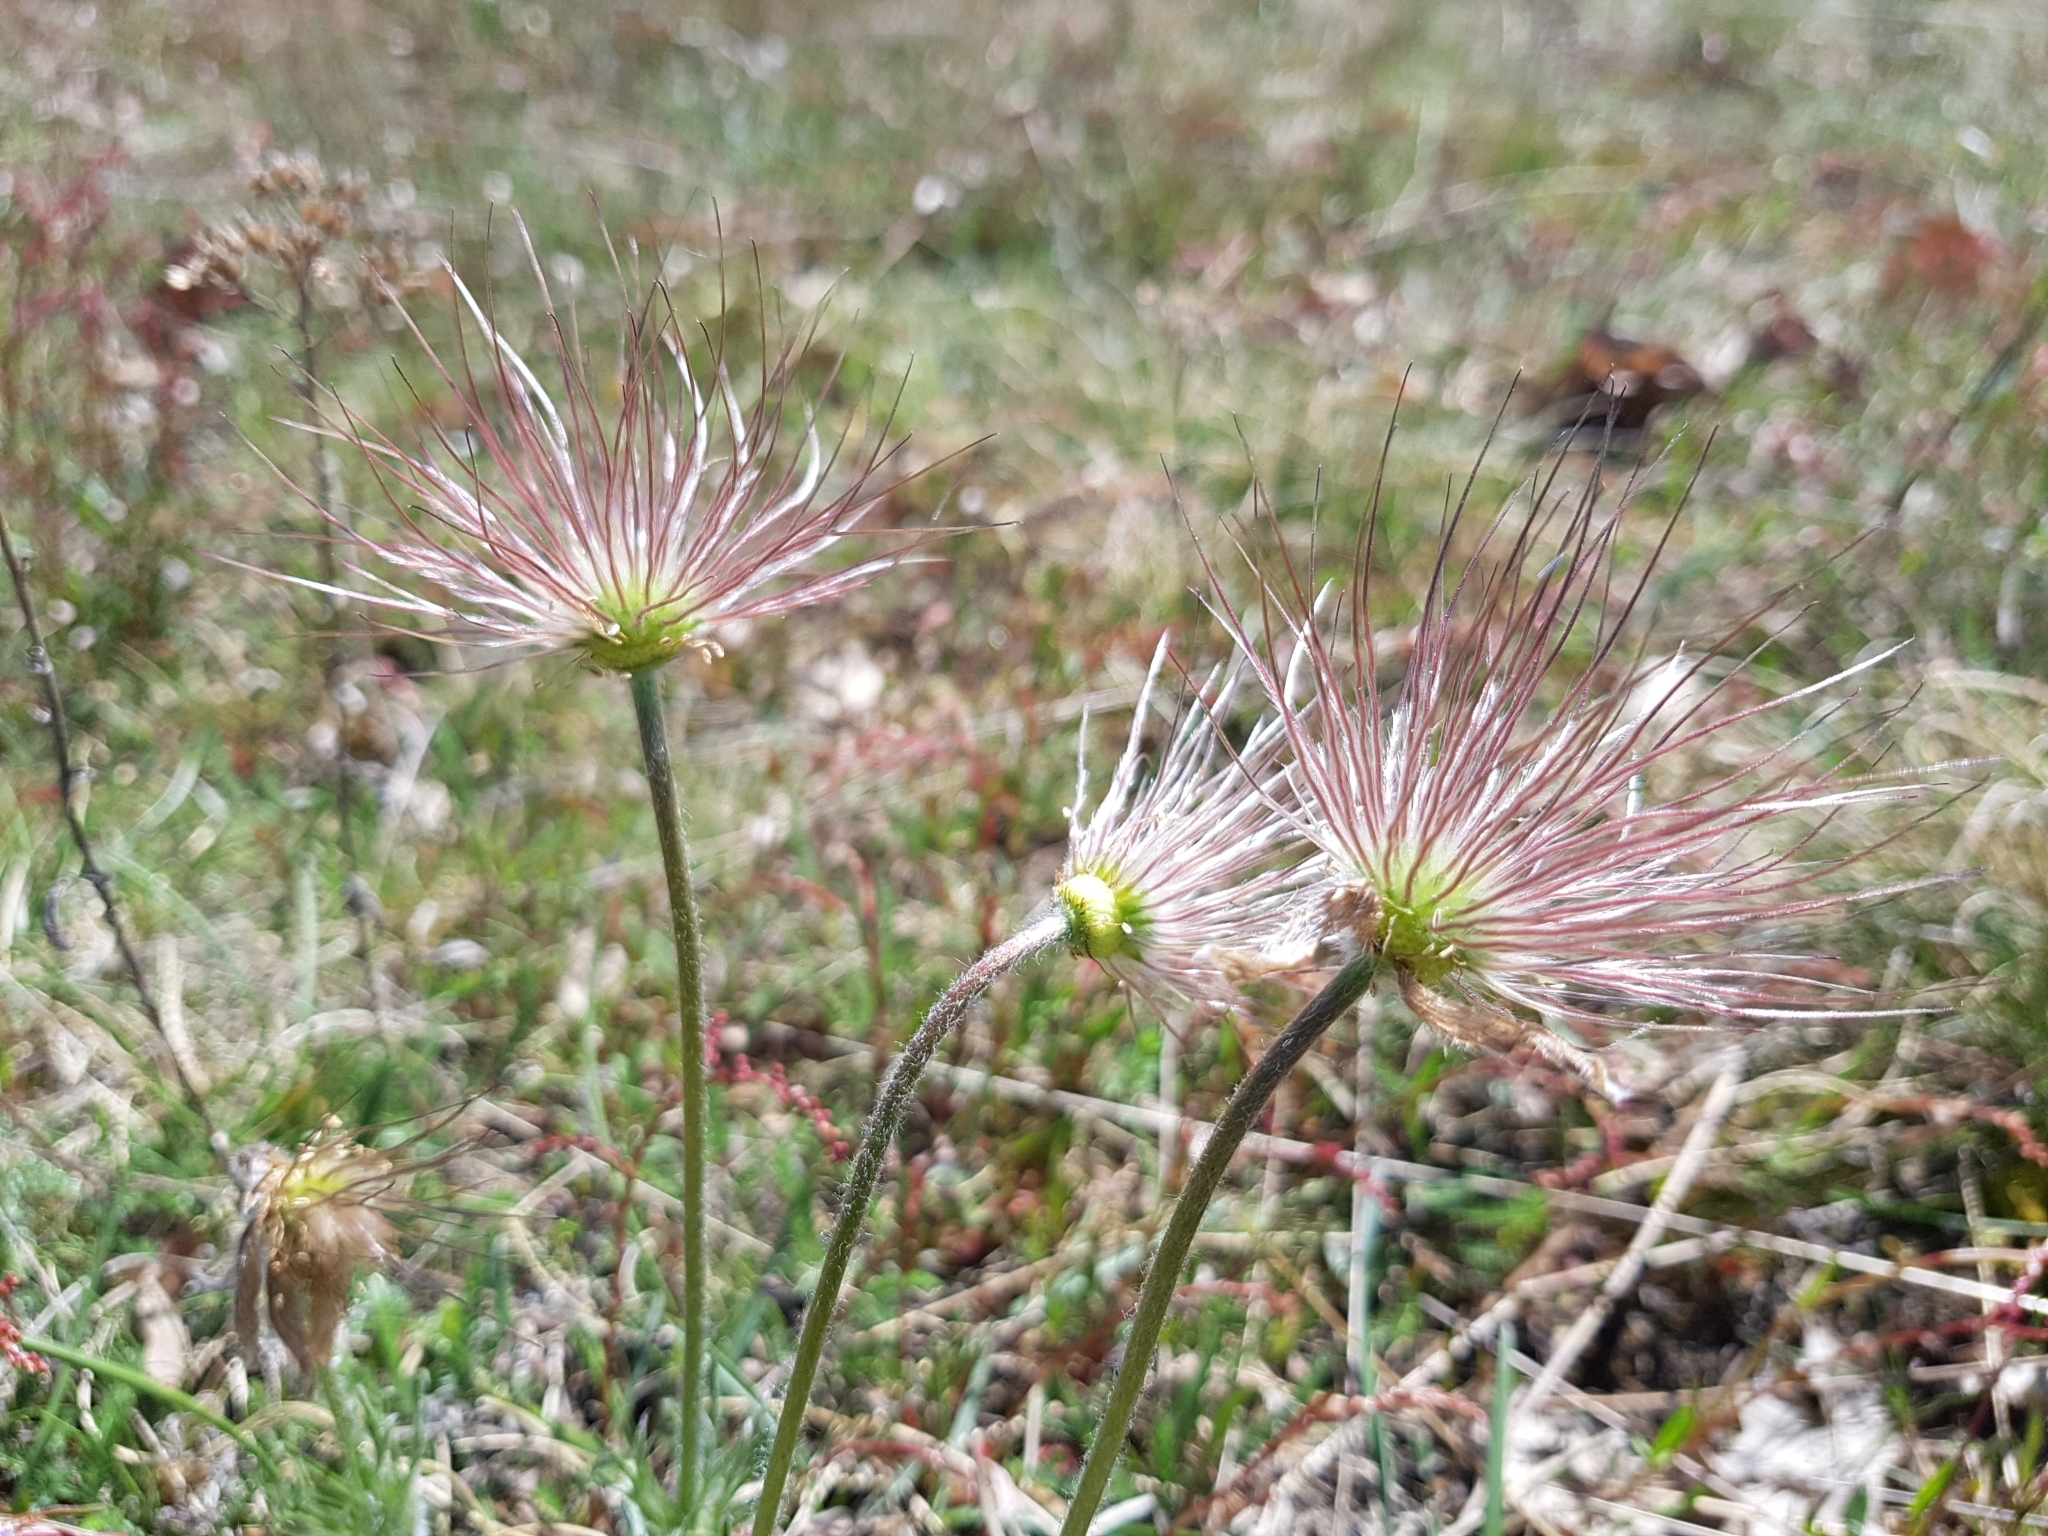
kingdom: Plantae
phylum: Tracheophyta
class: Magnoliopsida
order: Ranunculales
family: Ranunculaceae
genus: Pulsatilla
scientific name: Pulsatilla vulgaris
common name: Pasqueflower
